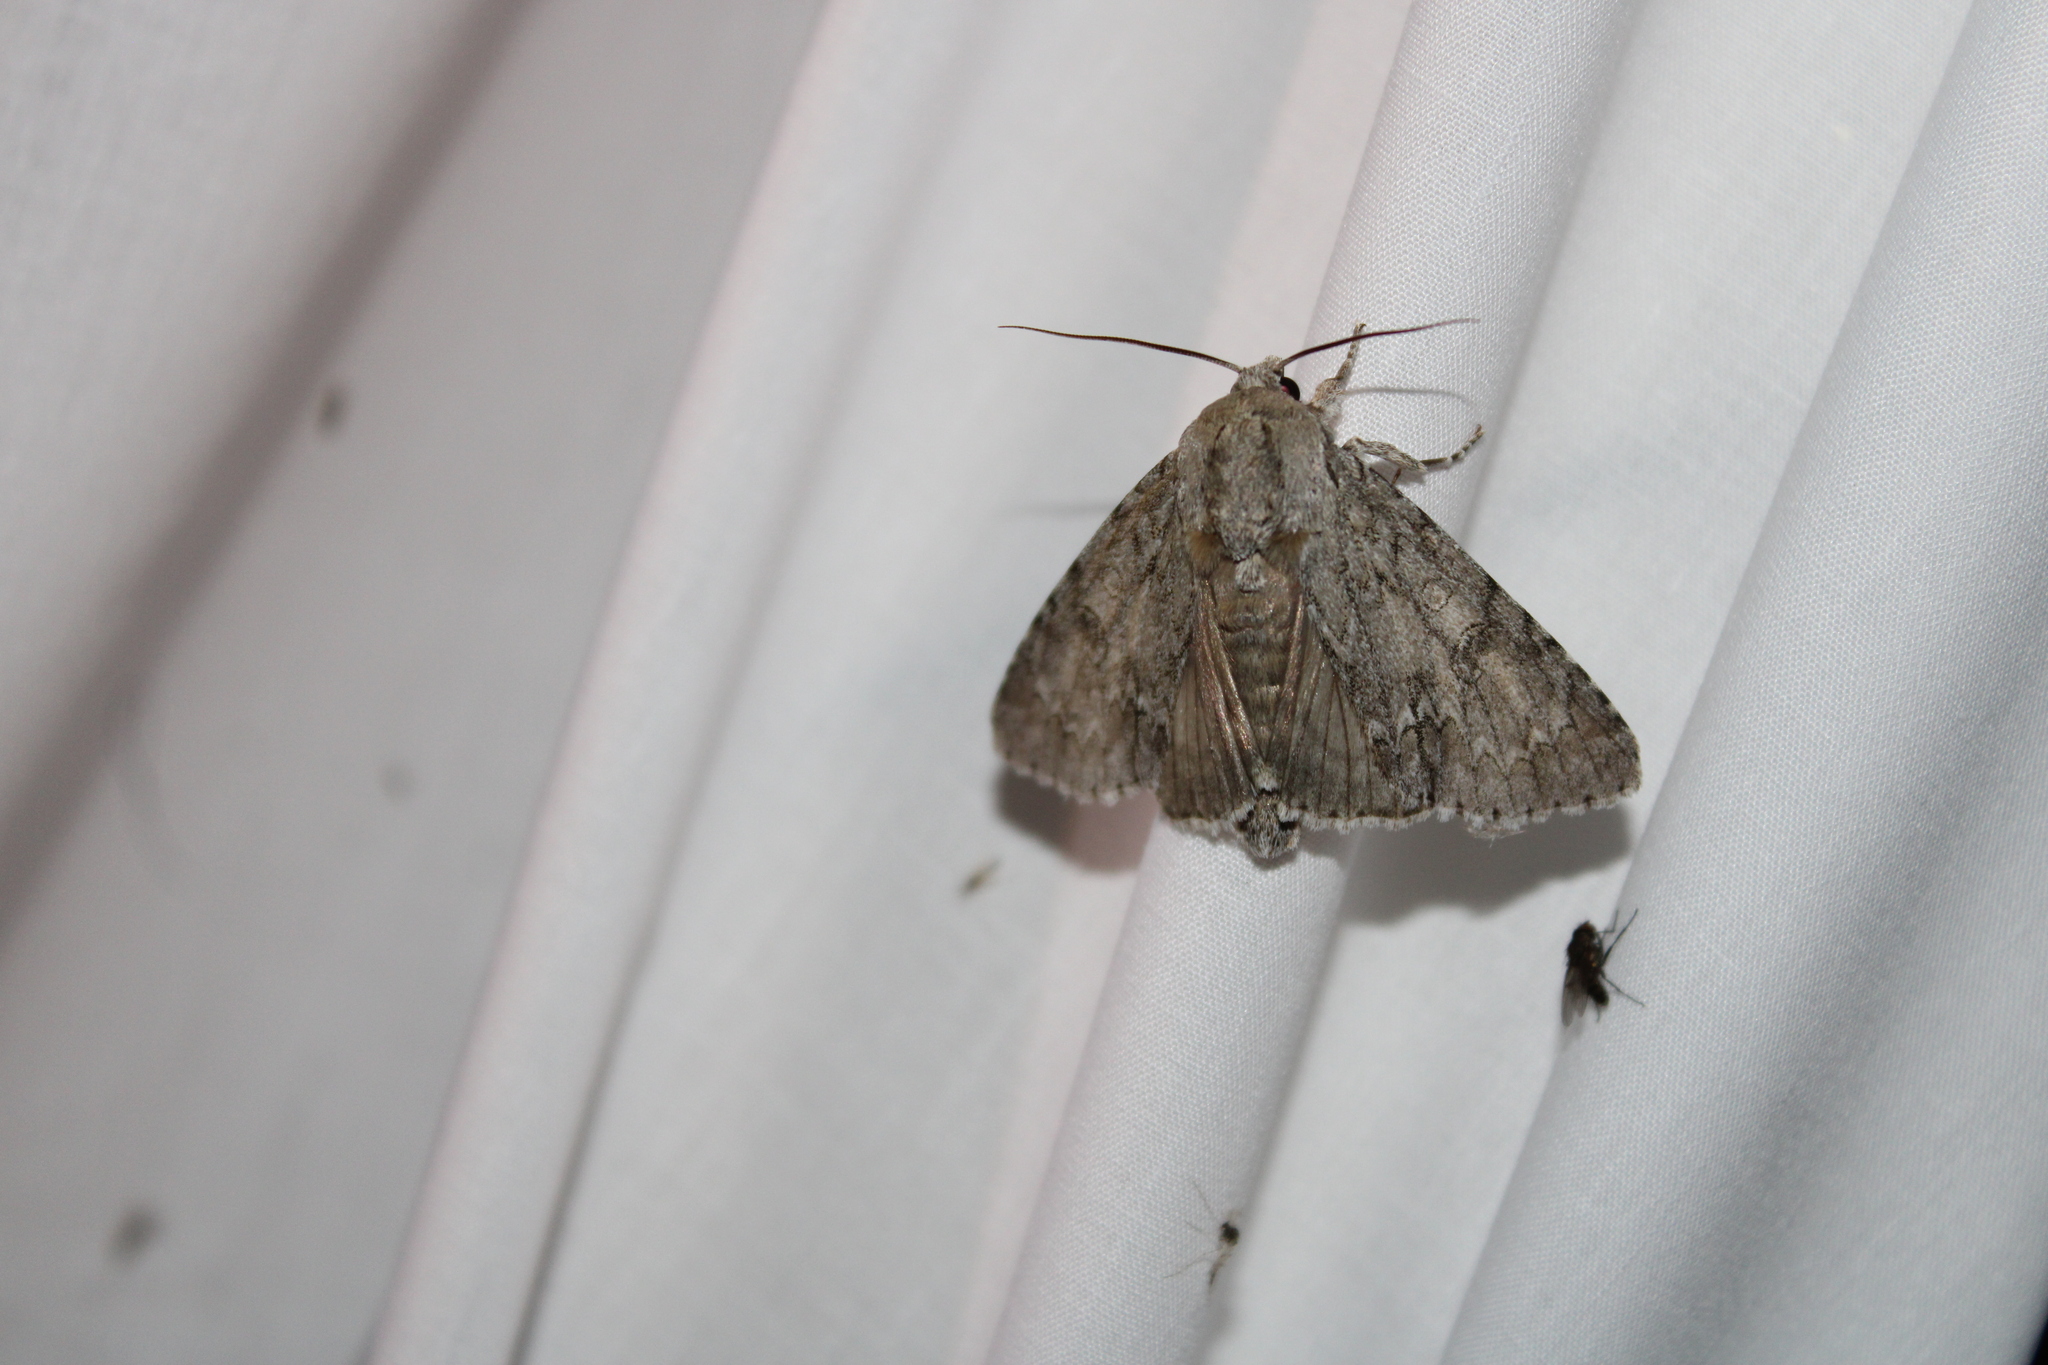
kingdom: Animalia
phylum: Arthropoda
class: Insecta
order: Lepidoptera
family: Noctuidae
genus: Acronicta
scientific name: Acronicta americana
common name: American dagger
